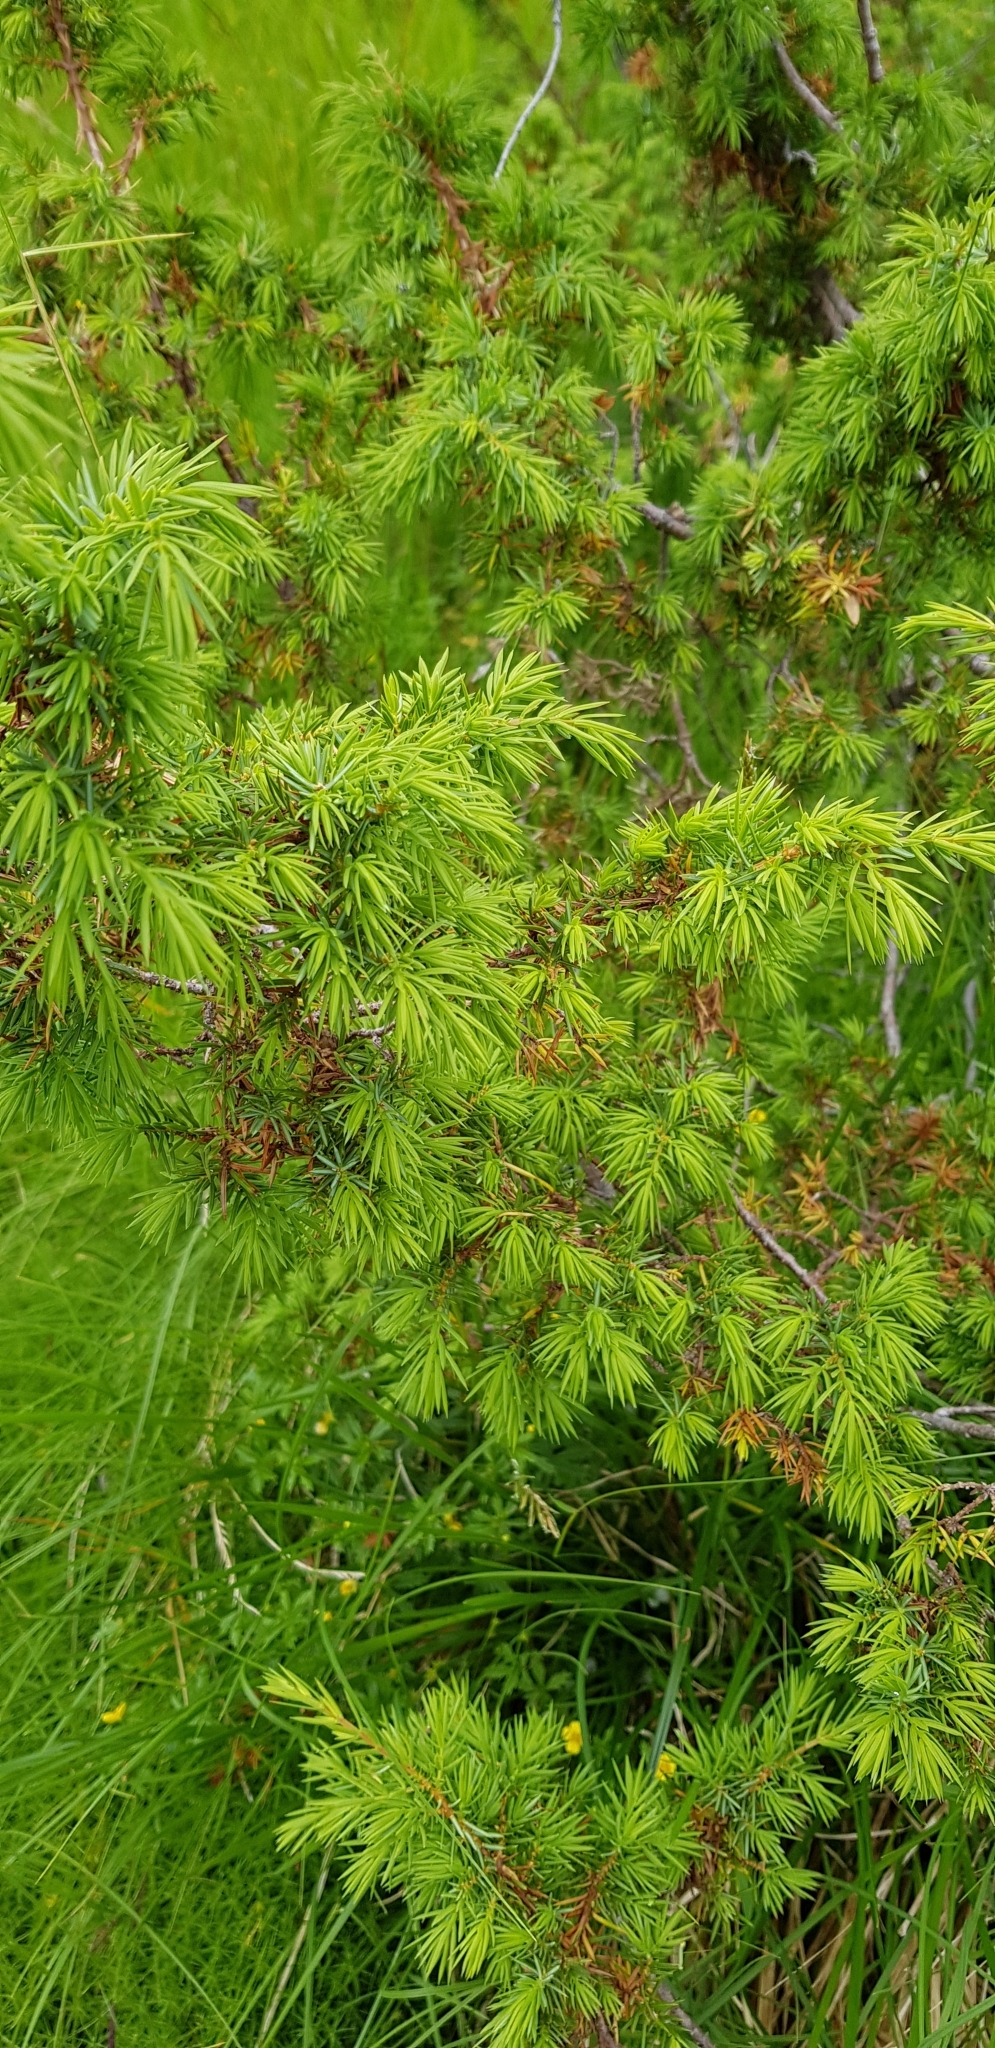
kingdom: Plantae
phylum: Tracheophyta
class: Pinopsida
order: Pinales
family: Cupressaceae
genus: Juniperus
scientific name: Juniperus communis
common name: Common juniper
